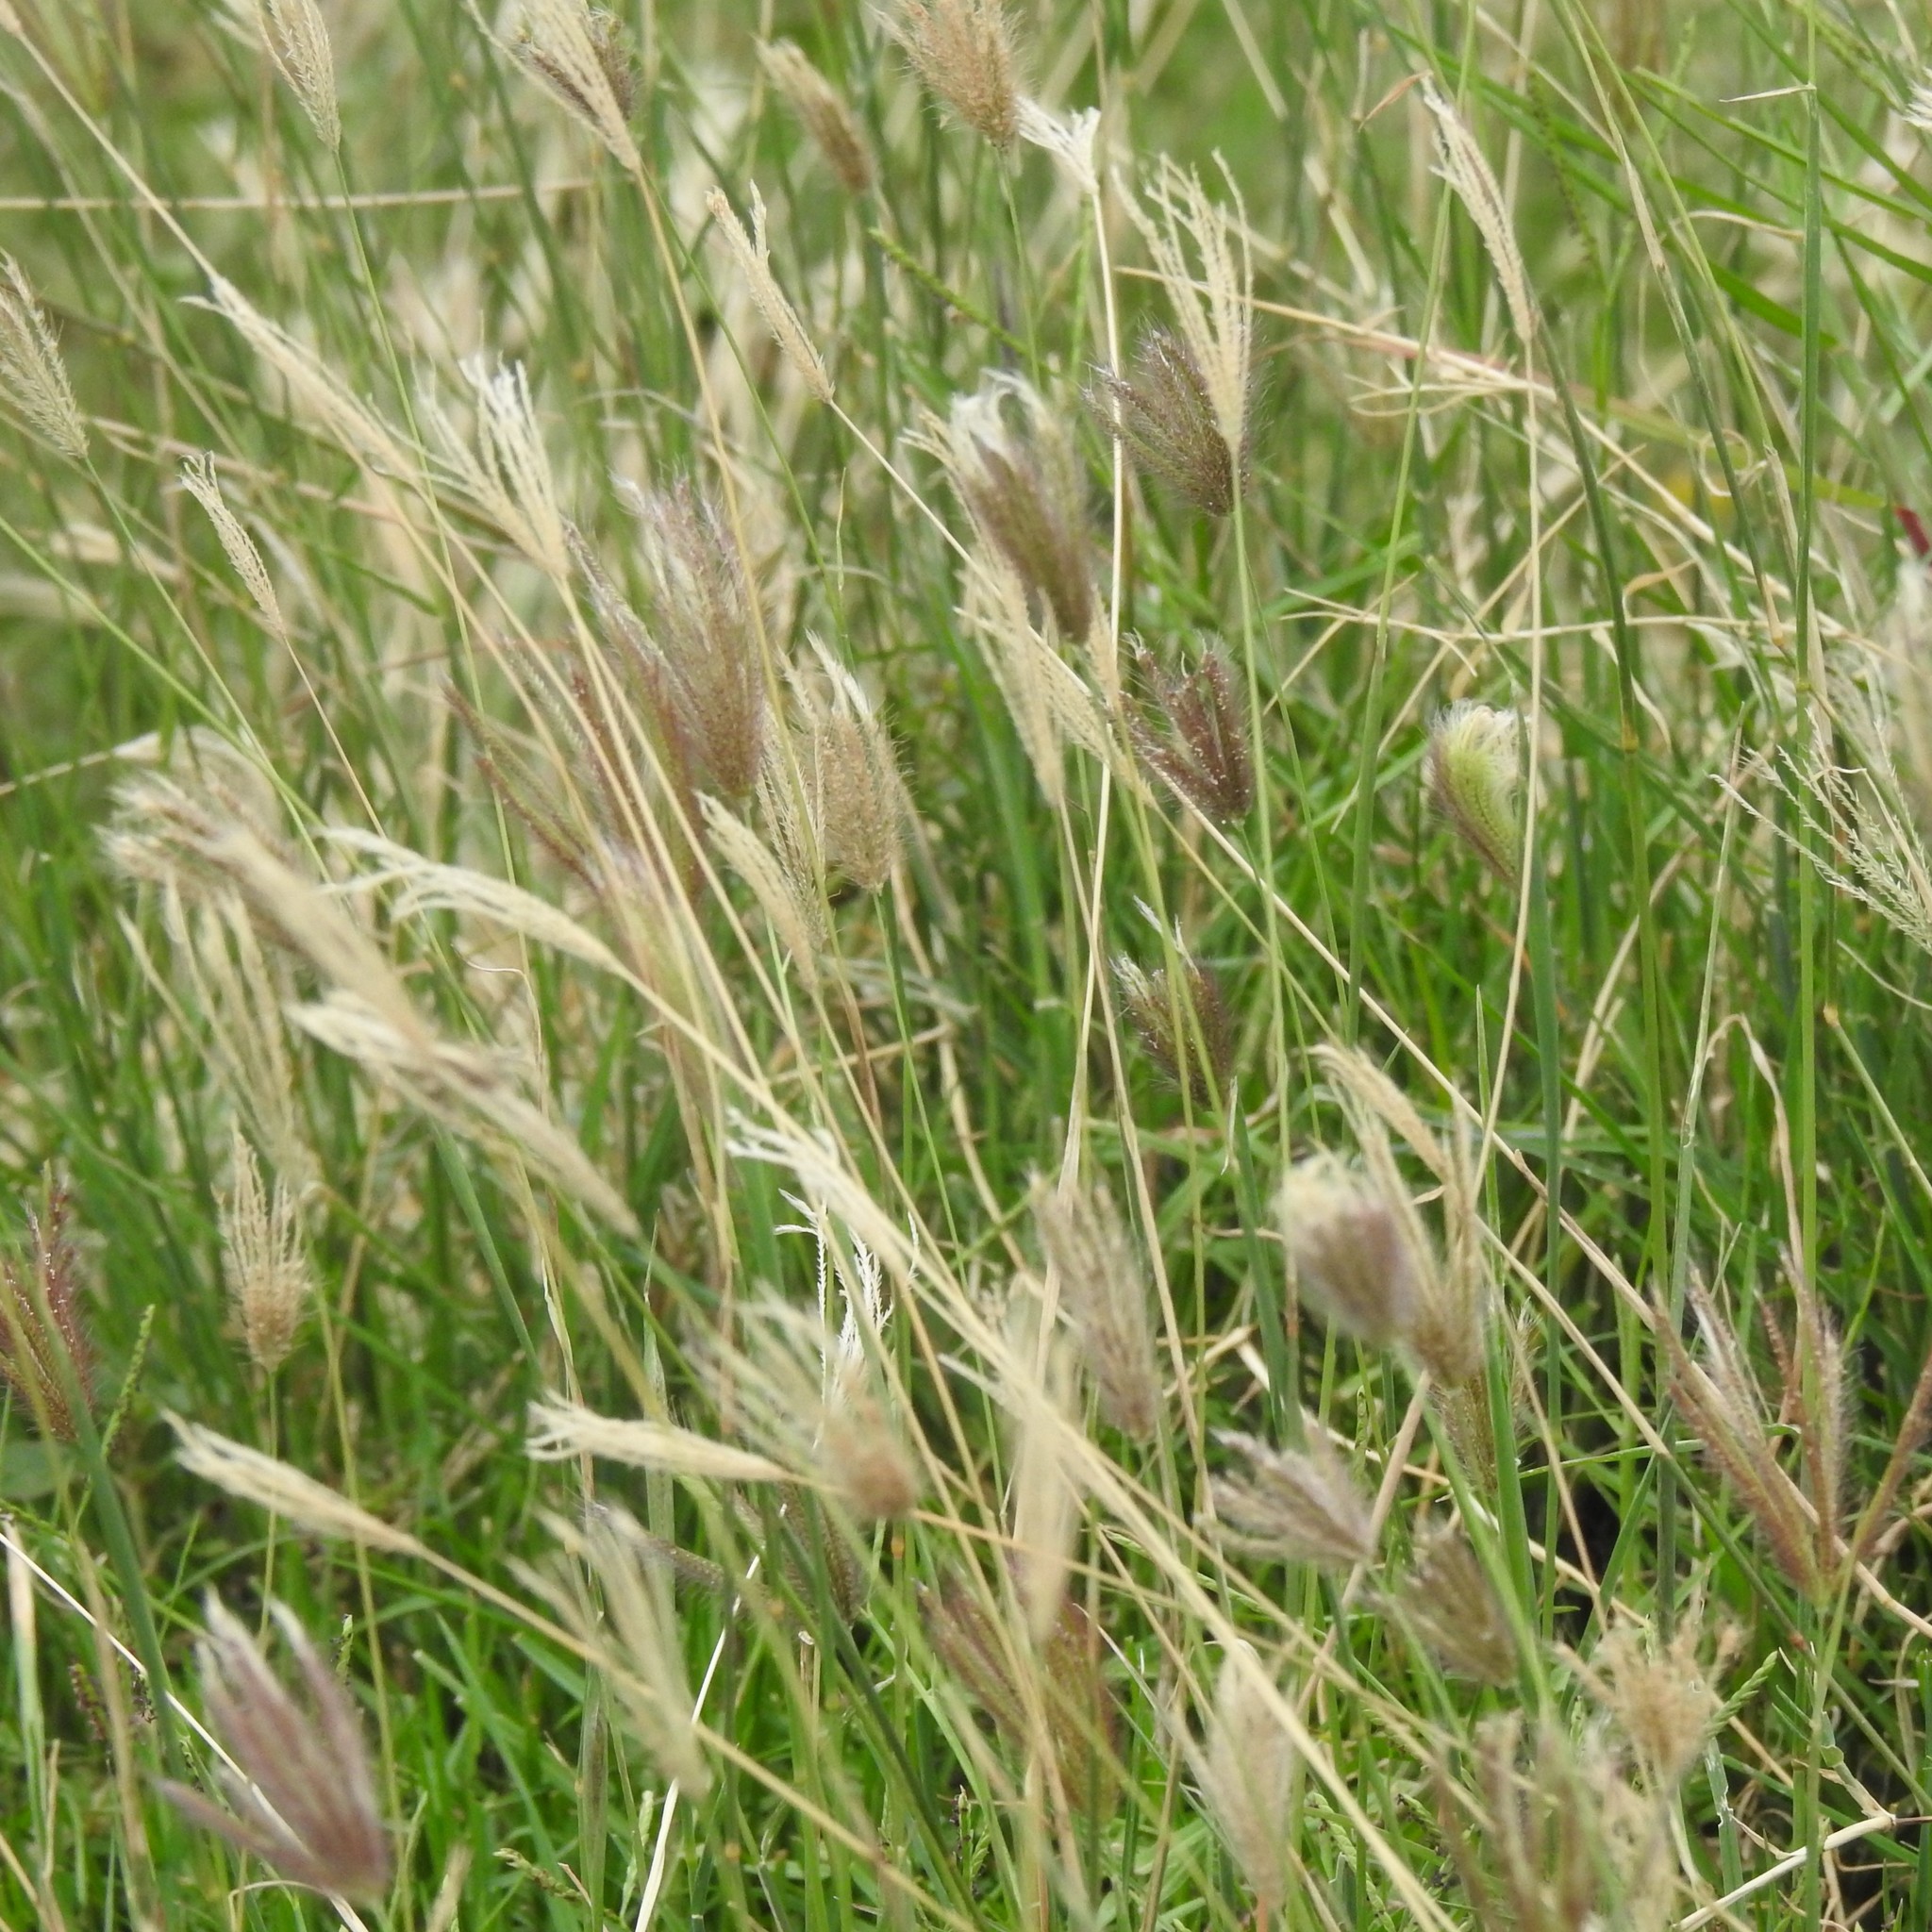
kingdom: Plantae
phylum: Tracheophyta
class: Liliopsida
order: Poales
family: Poaceae
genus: Chloris
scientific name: Chloris virgata
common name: Feathery rhodes-grass
